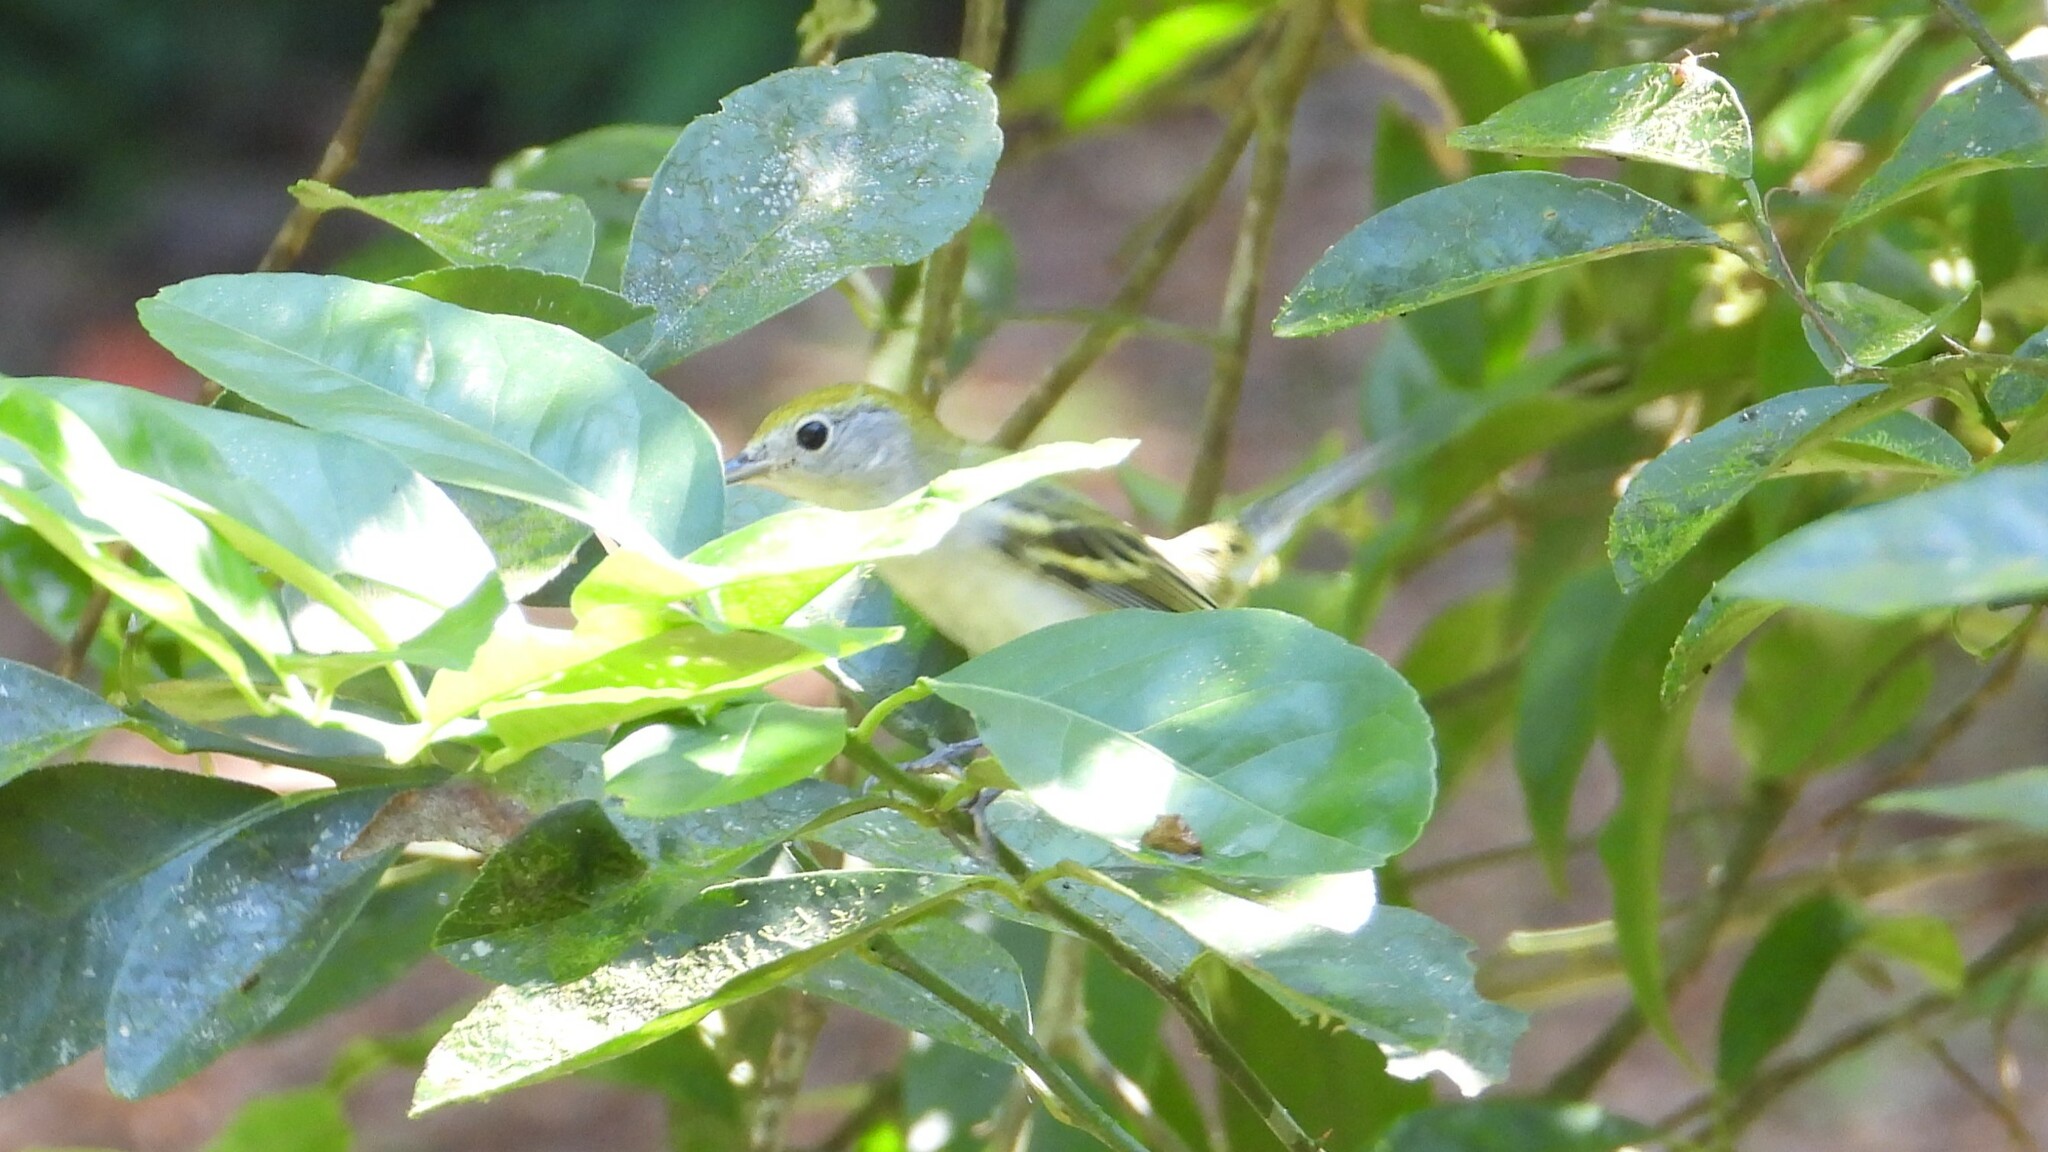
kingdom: Animalia
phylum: Chordata
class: Aves
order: Passeriformes
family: Parulidae
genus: Setophaga
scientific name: Setophaga pensylvanica
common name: Chestnut-sided warbler
